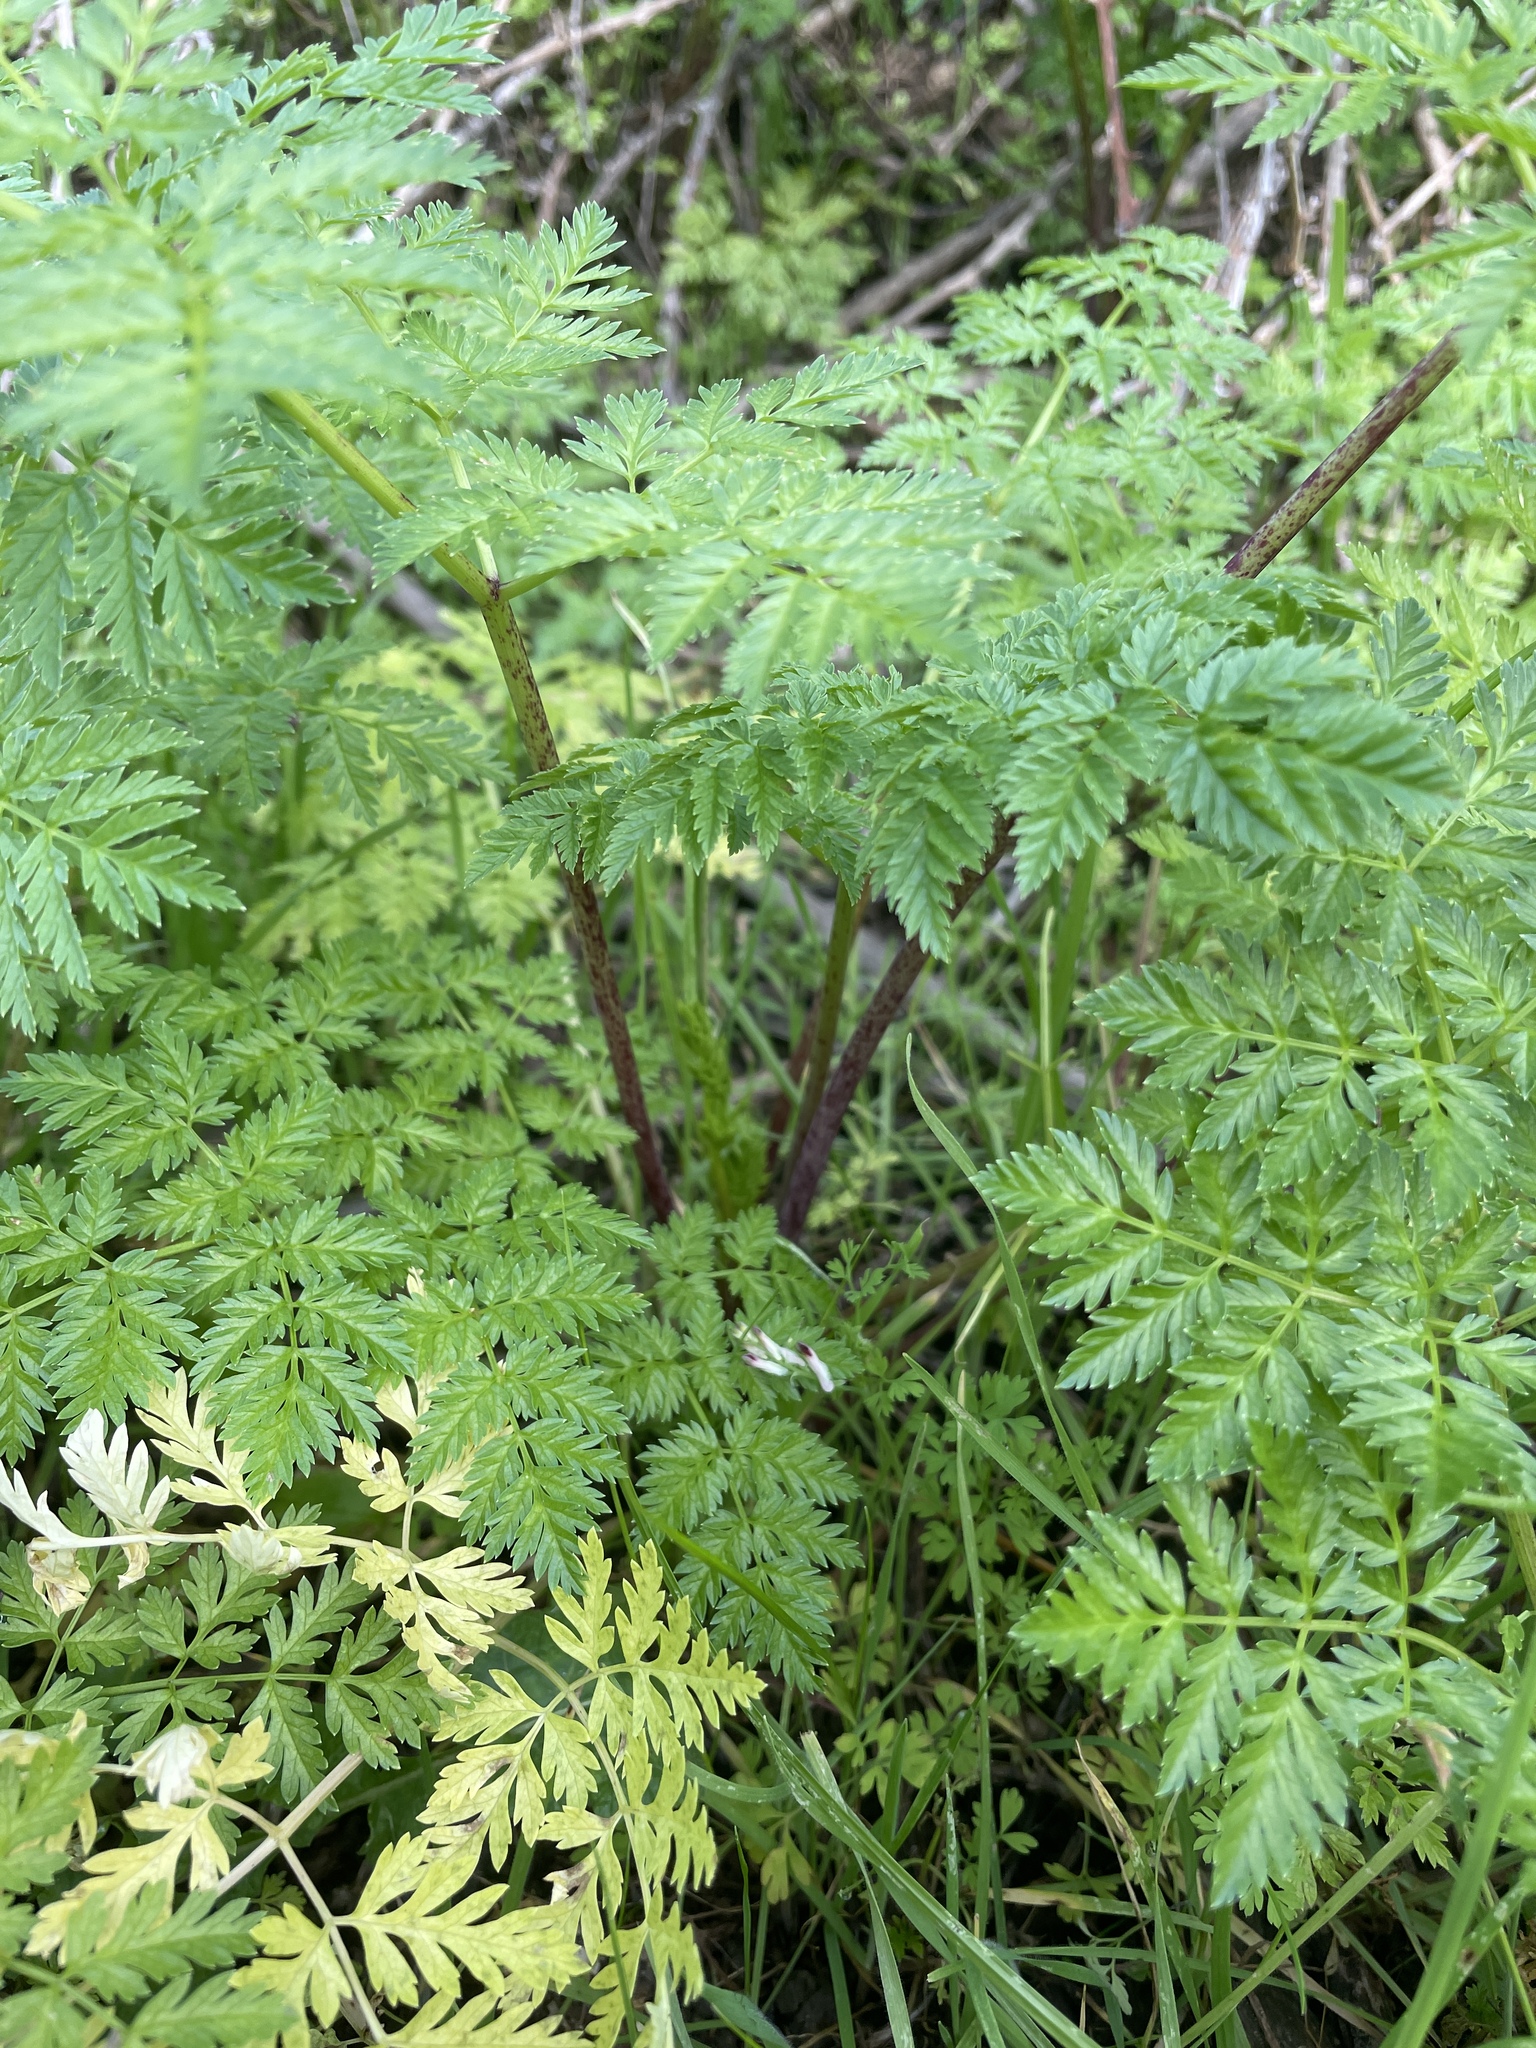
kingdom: Plantae
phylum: Tracheophyta
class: Magnoliopsida
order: Apiales
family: Apiaceae
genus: Conium
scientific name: Conium maculatum
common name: Hemlock
